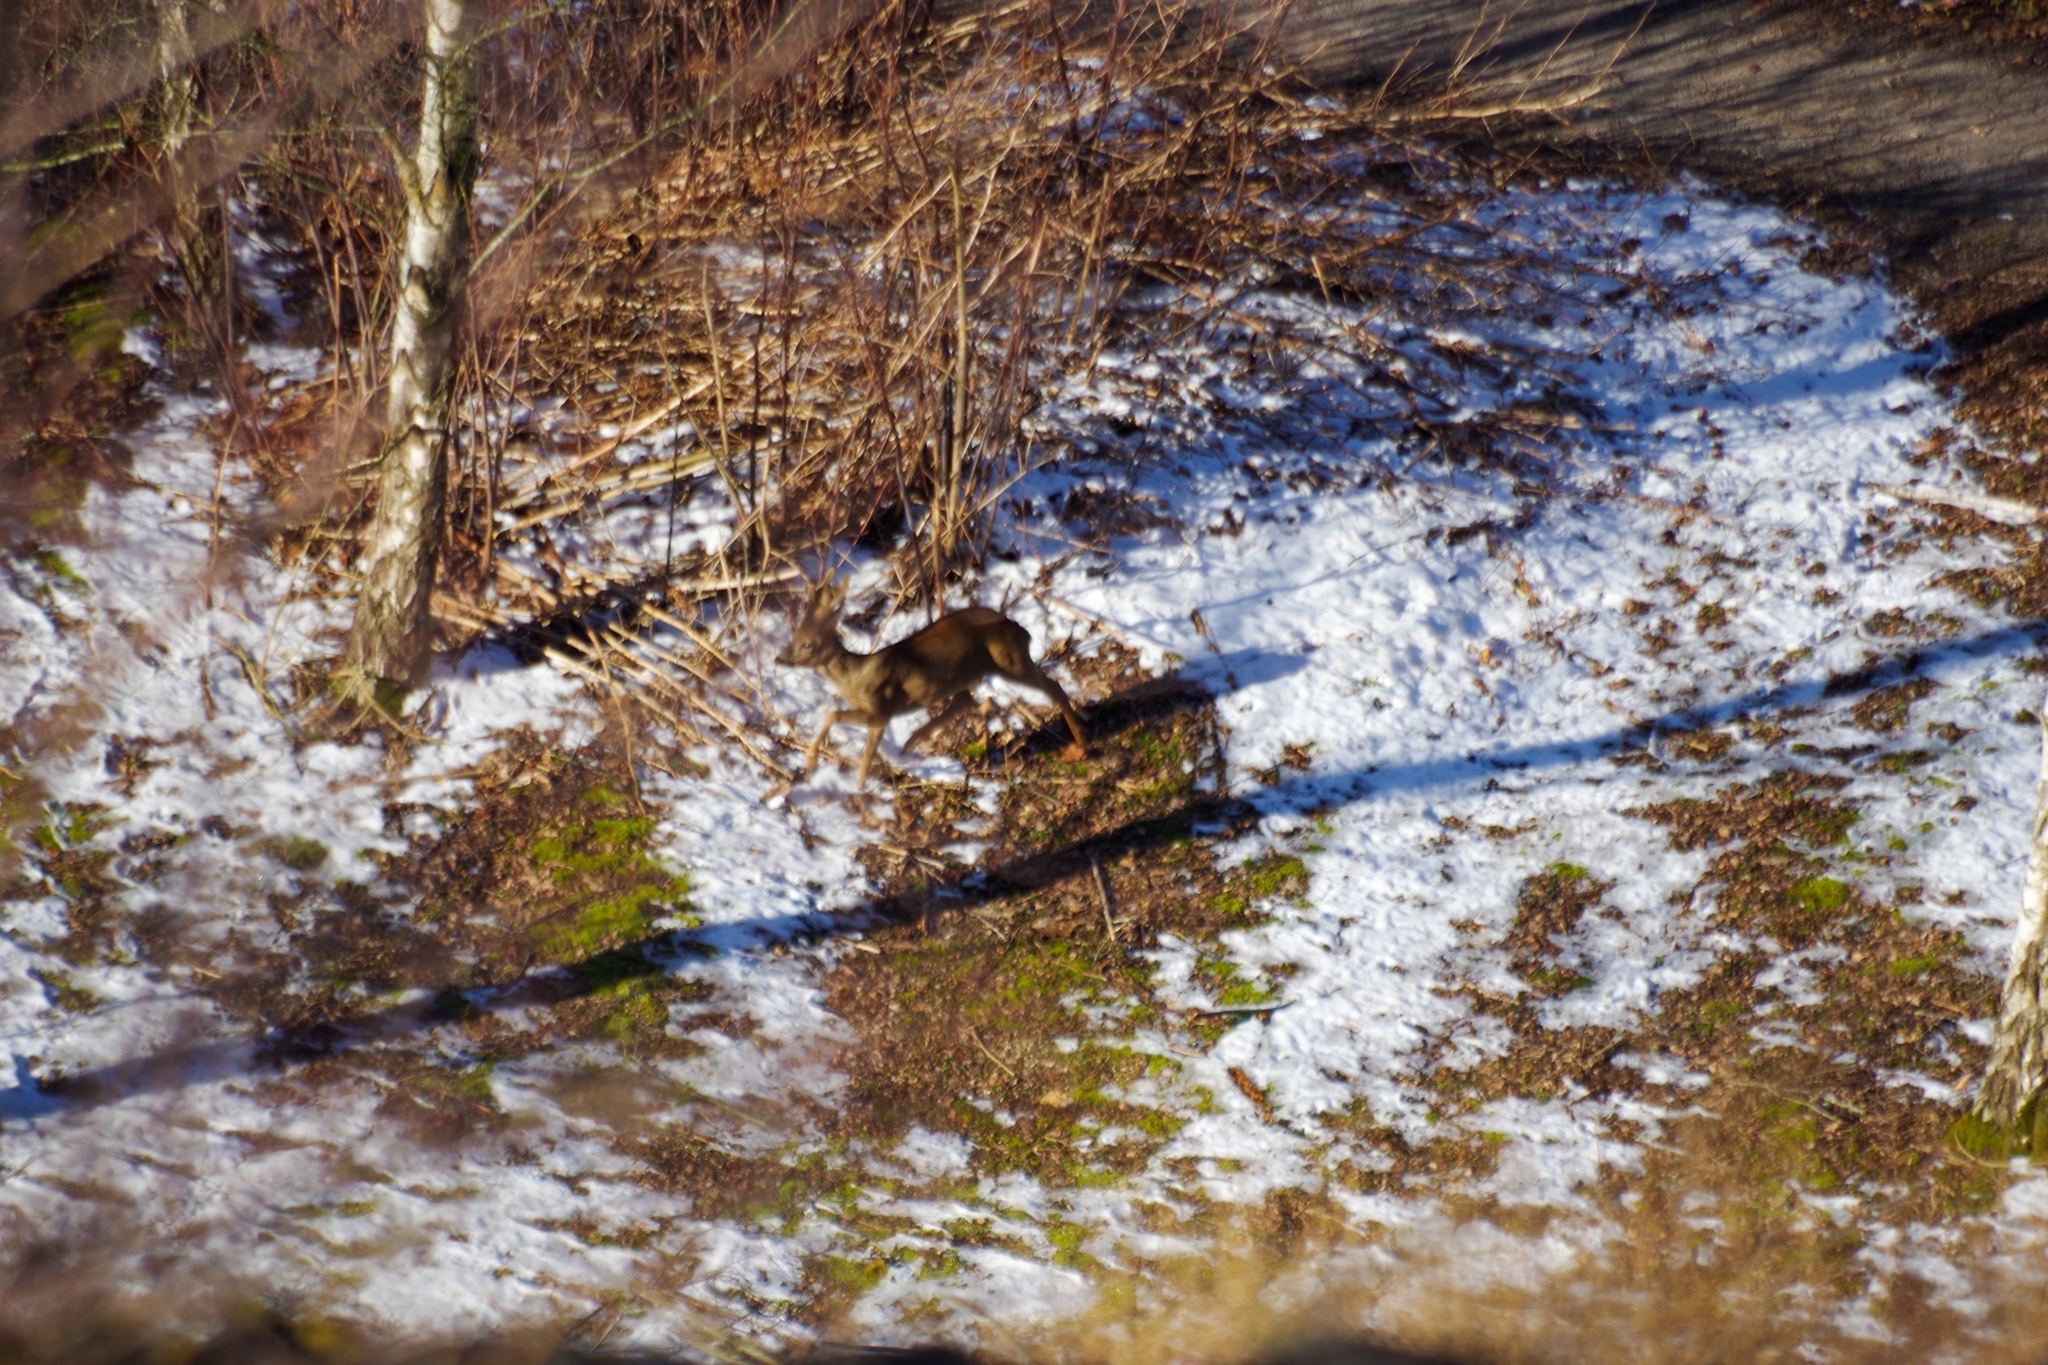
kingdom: Animalia
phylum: Chordata
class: Mammalia
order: Artiodactyla
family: Cervidae
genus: Capreolus
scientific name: Capreolus capreolus
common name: Western roe deer
